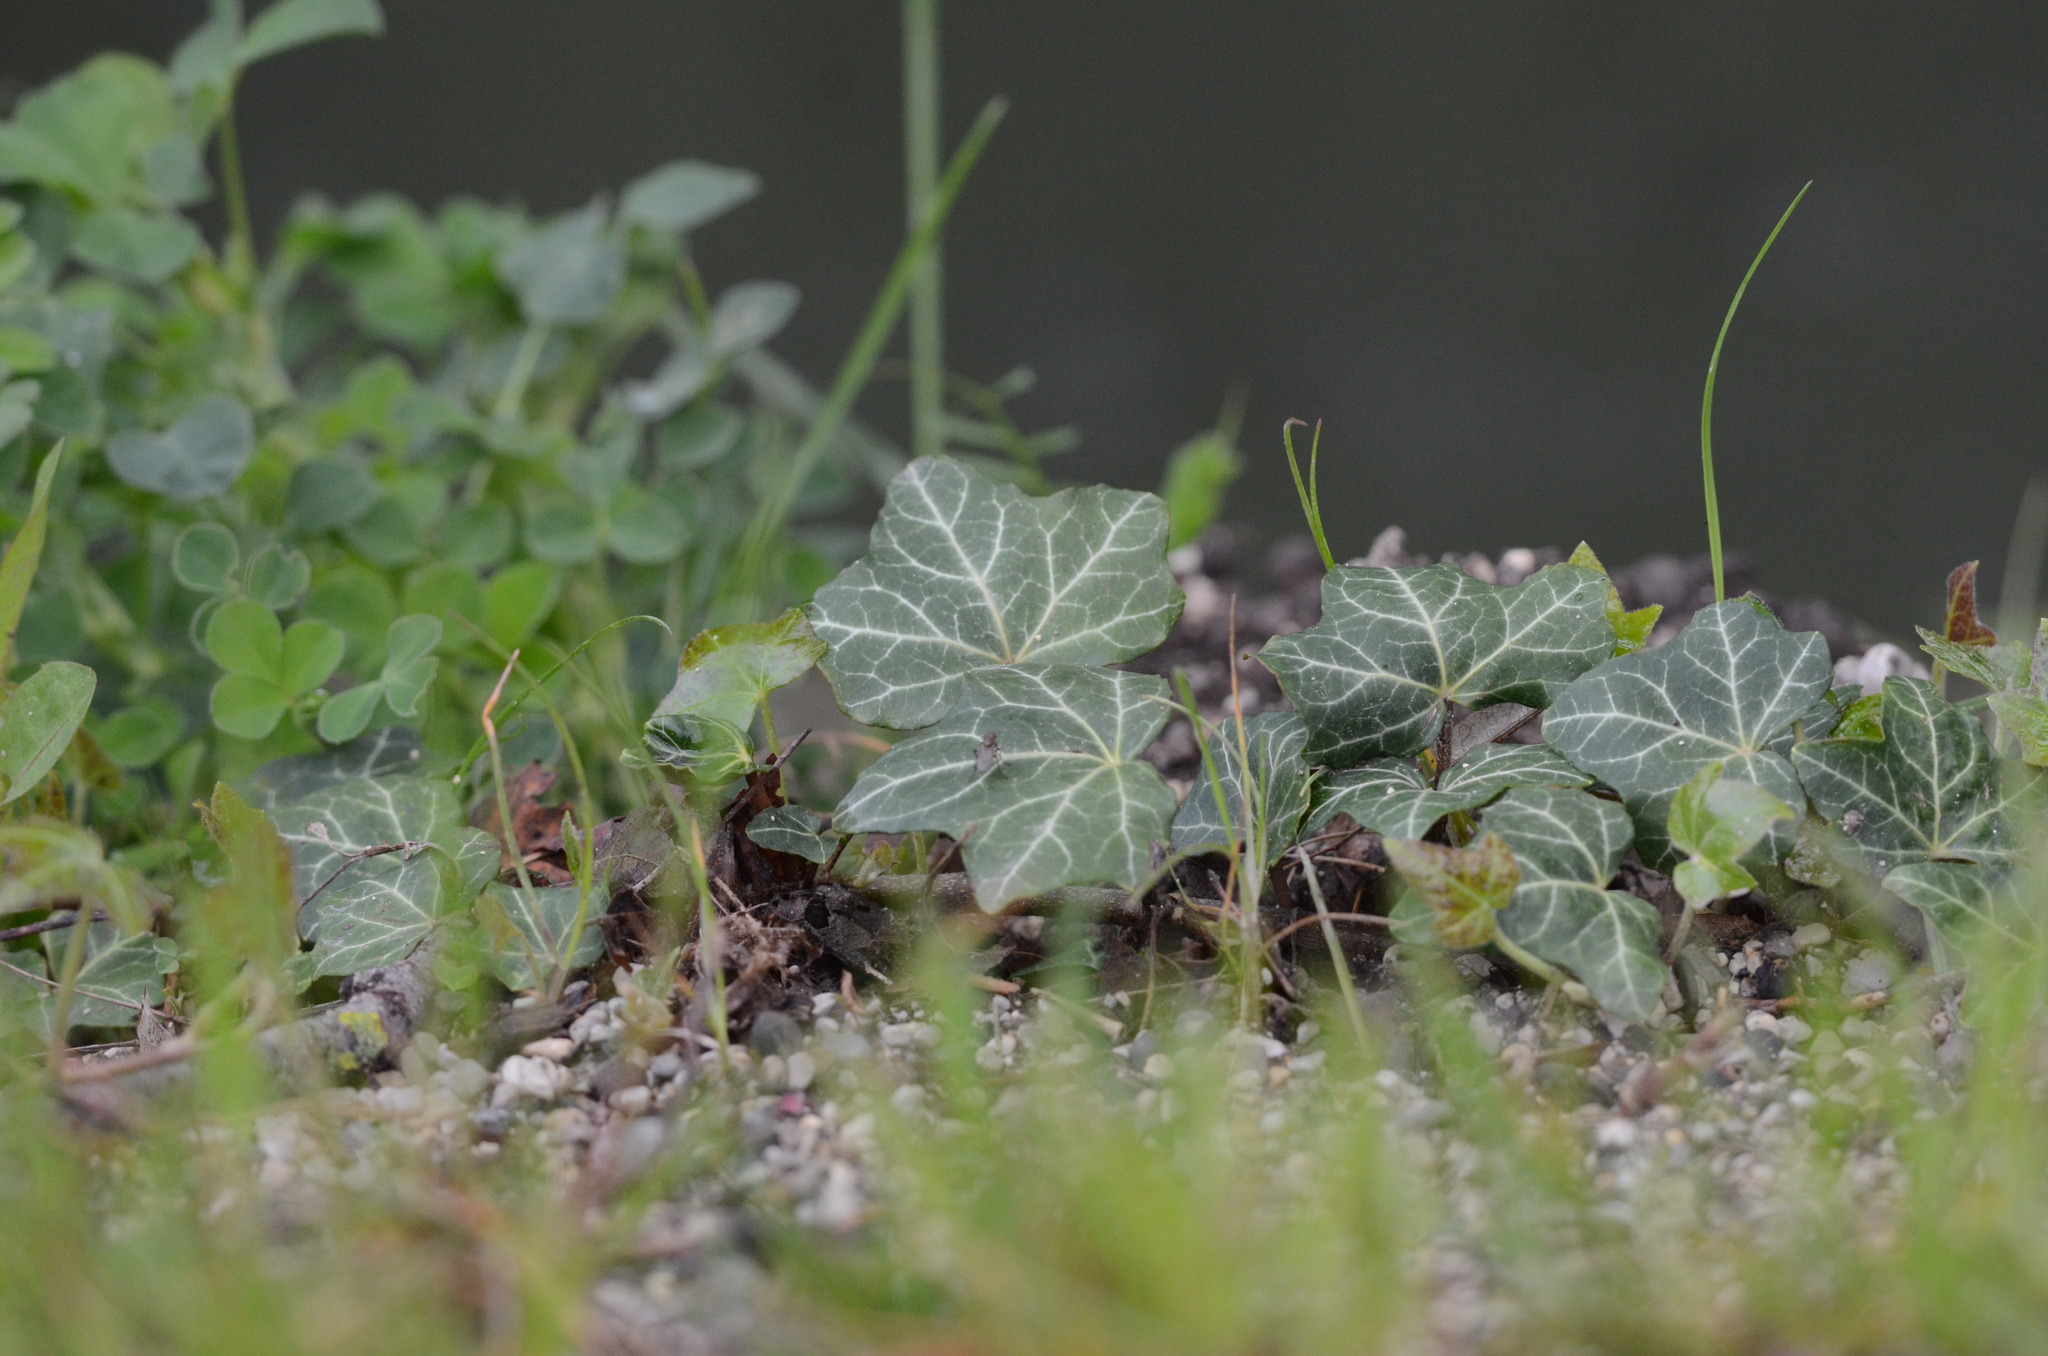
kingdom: Plantae
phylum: Tracheophyta
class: Magnoliopsida
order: Apiales
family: Araliaceae
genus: Hedera
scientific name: Hedera helix
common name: Ivy
